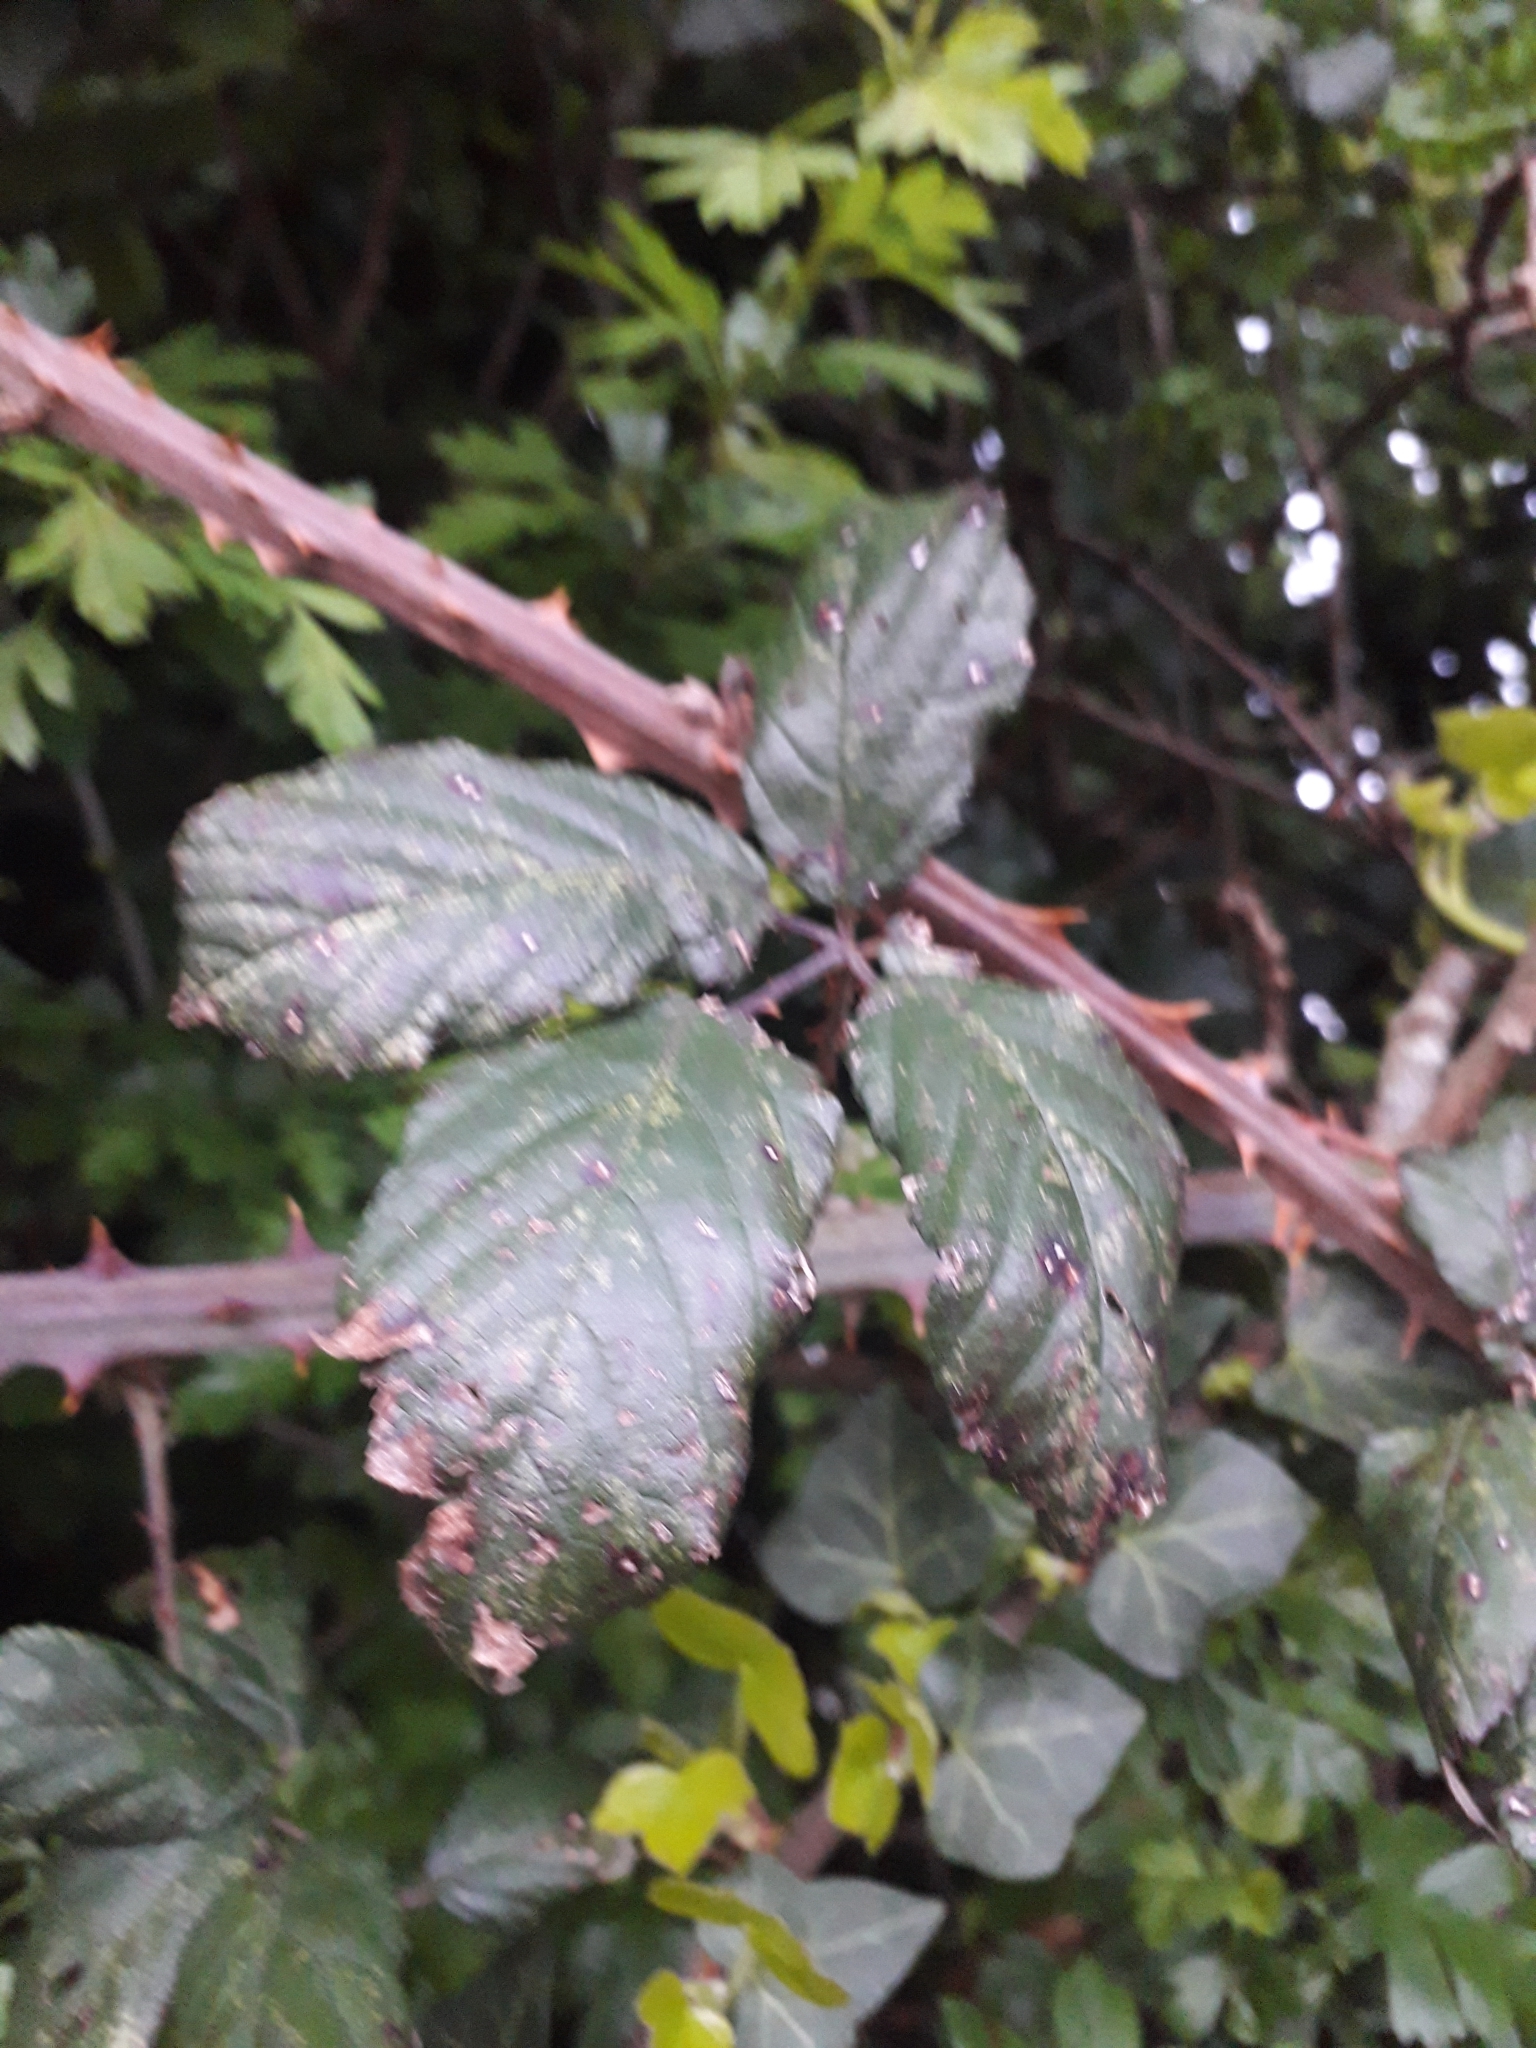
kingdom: Plantae
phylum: Tracheophyta
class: Magnoliopsida
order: Rosales
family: Rosaceae
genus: Rubus
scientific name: Rubus ulmifolius
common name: Elmleaf blackberry
